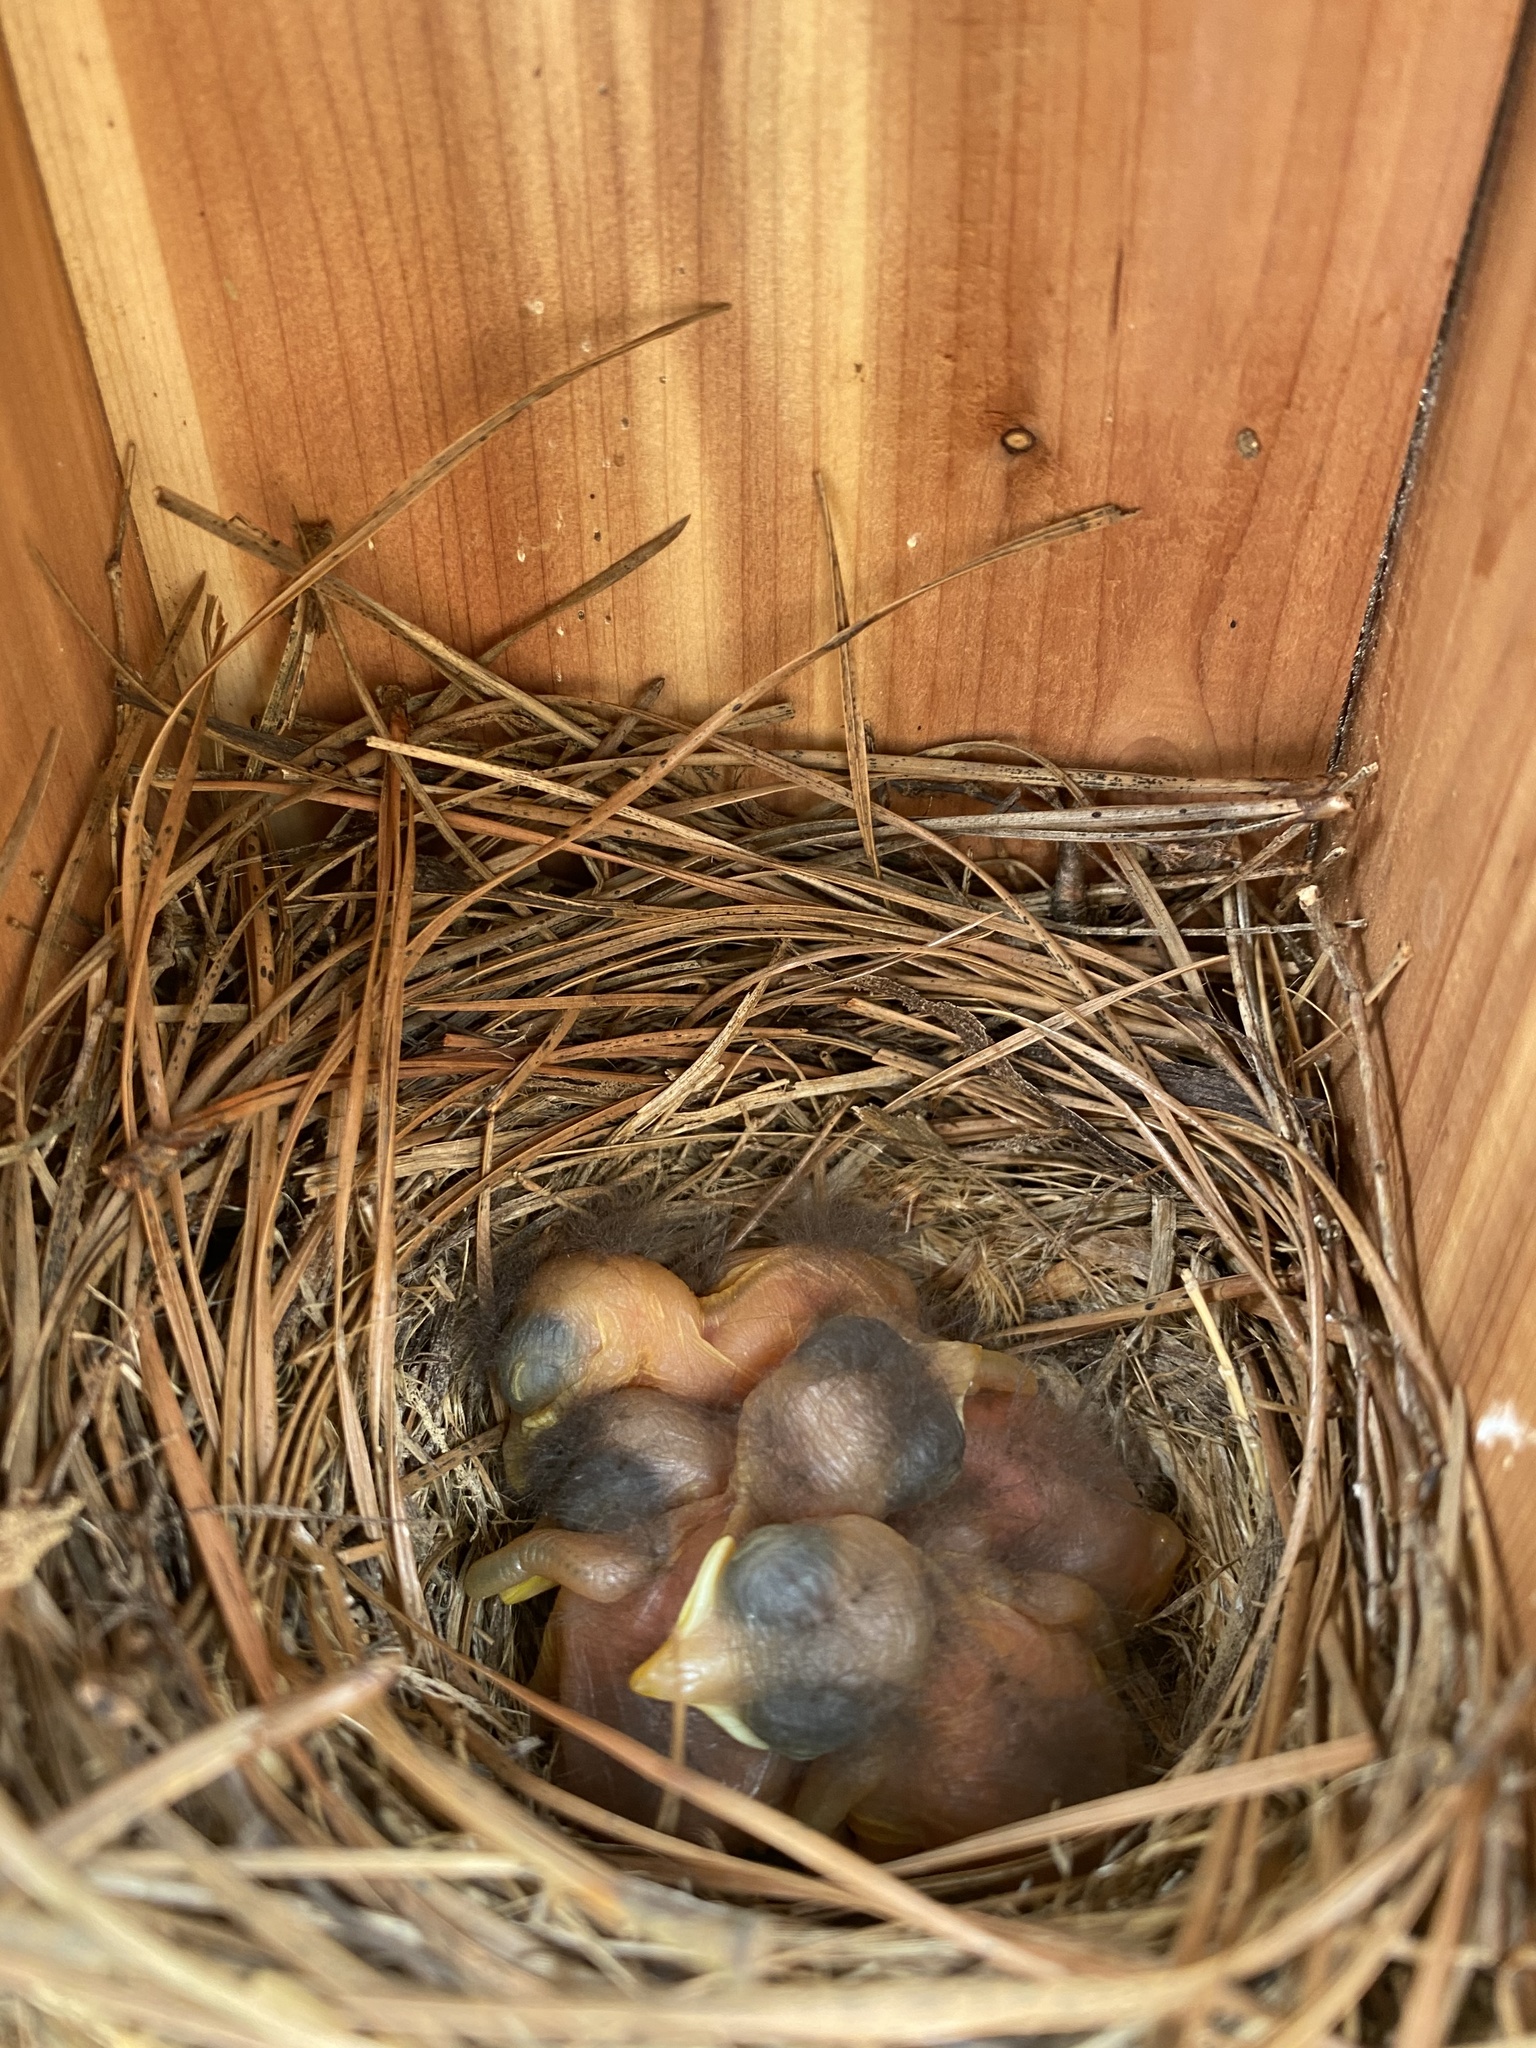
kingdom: Animalia
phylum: Chordata
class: Aves
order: Passeriformes
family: Turdidae
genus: Sialia
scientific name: Sialia sialis
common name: Eastern bluebird
